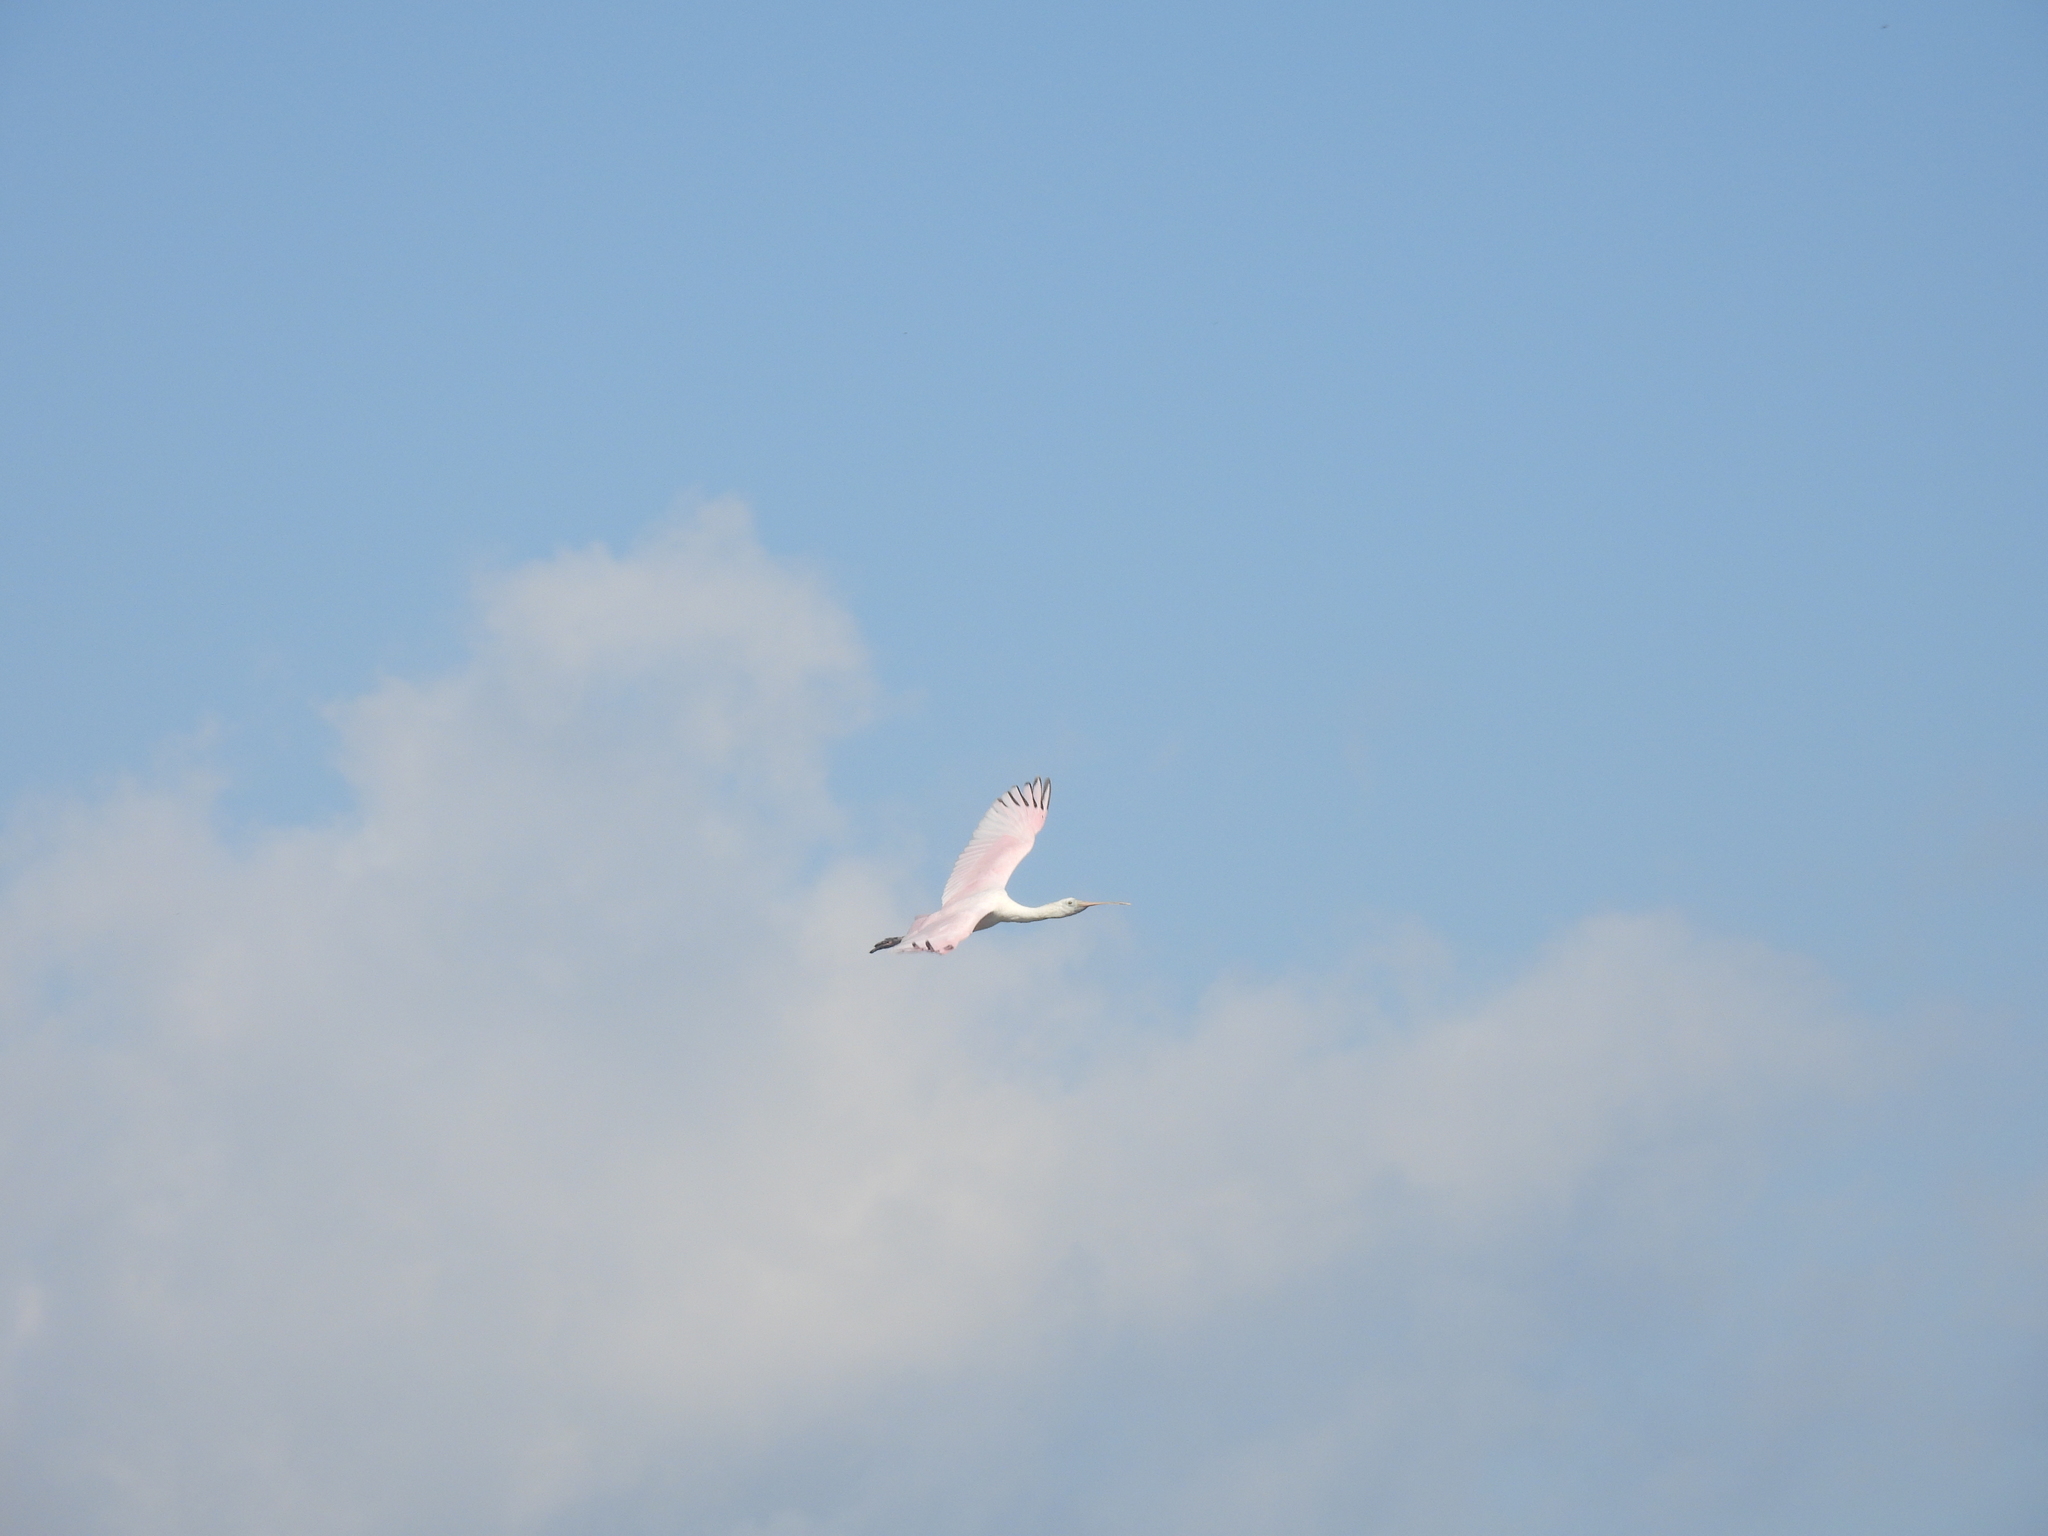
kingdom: Animalia
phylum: Chordata
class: Aves
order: Pelecaniformes
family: Threskiornithidae
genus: Platalea
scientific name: Platalea ajaja
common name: Roseate spoonbill
